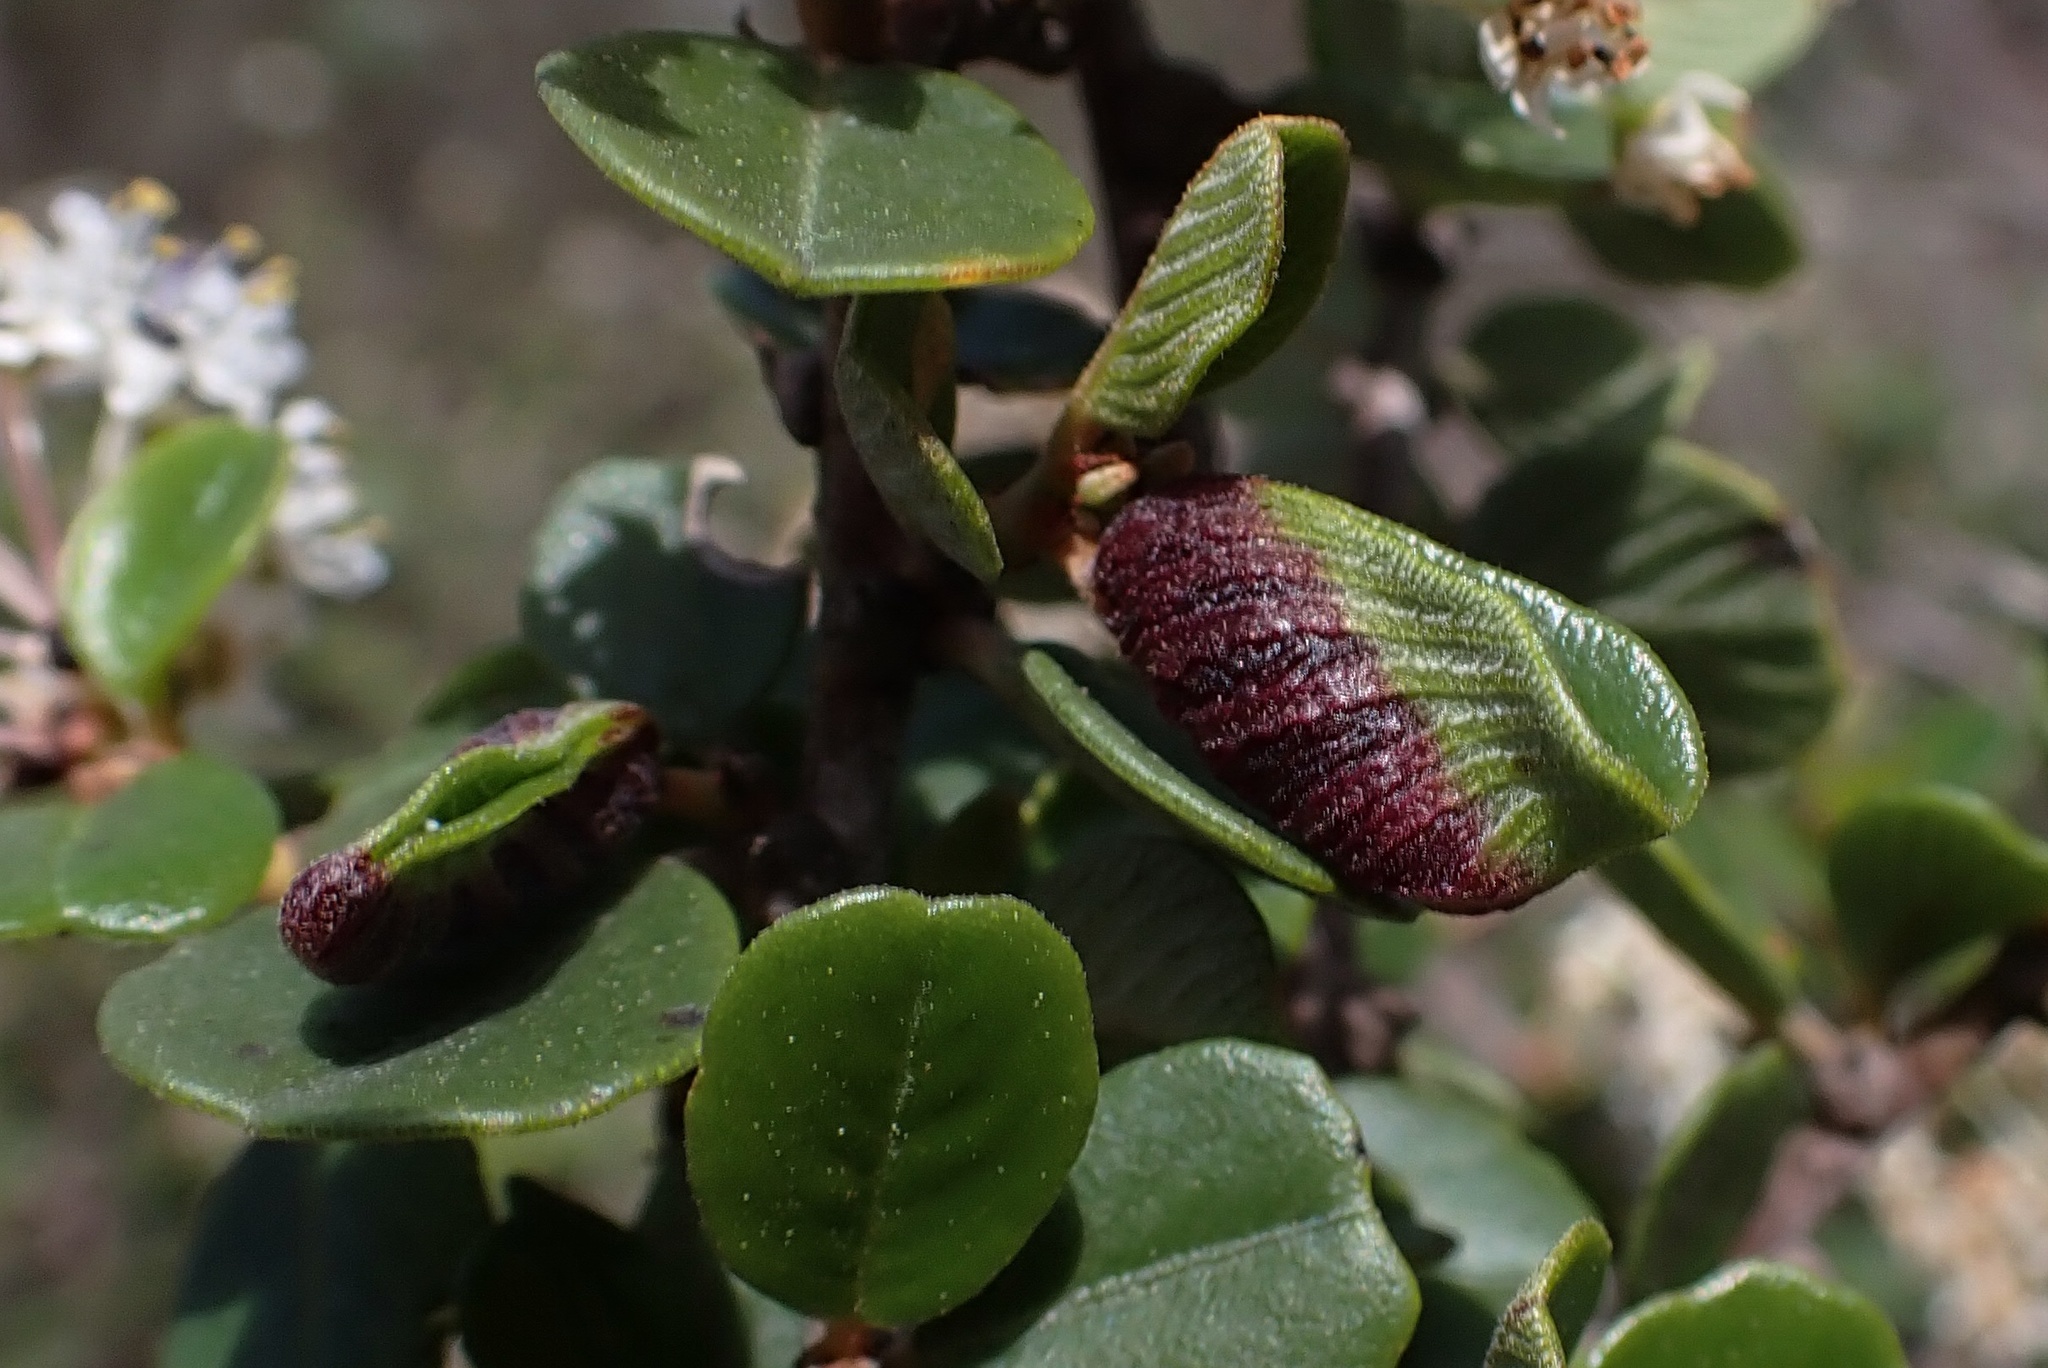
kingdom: Animalia
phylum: Arthropoda
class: Insecta
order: Diptera
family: Cecidomyiidae
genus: Contarinia
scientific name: Contarinia
